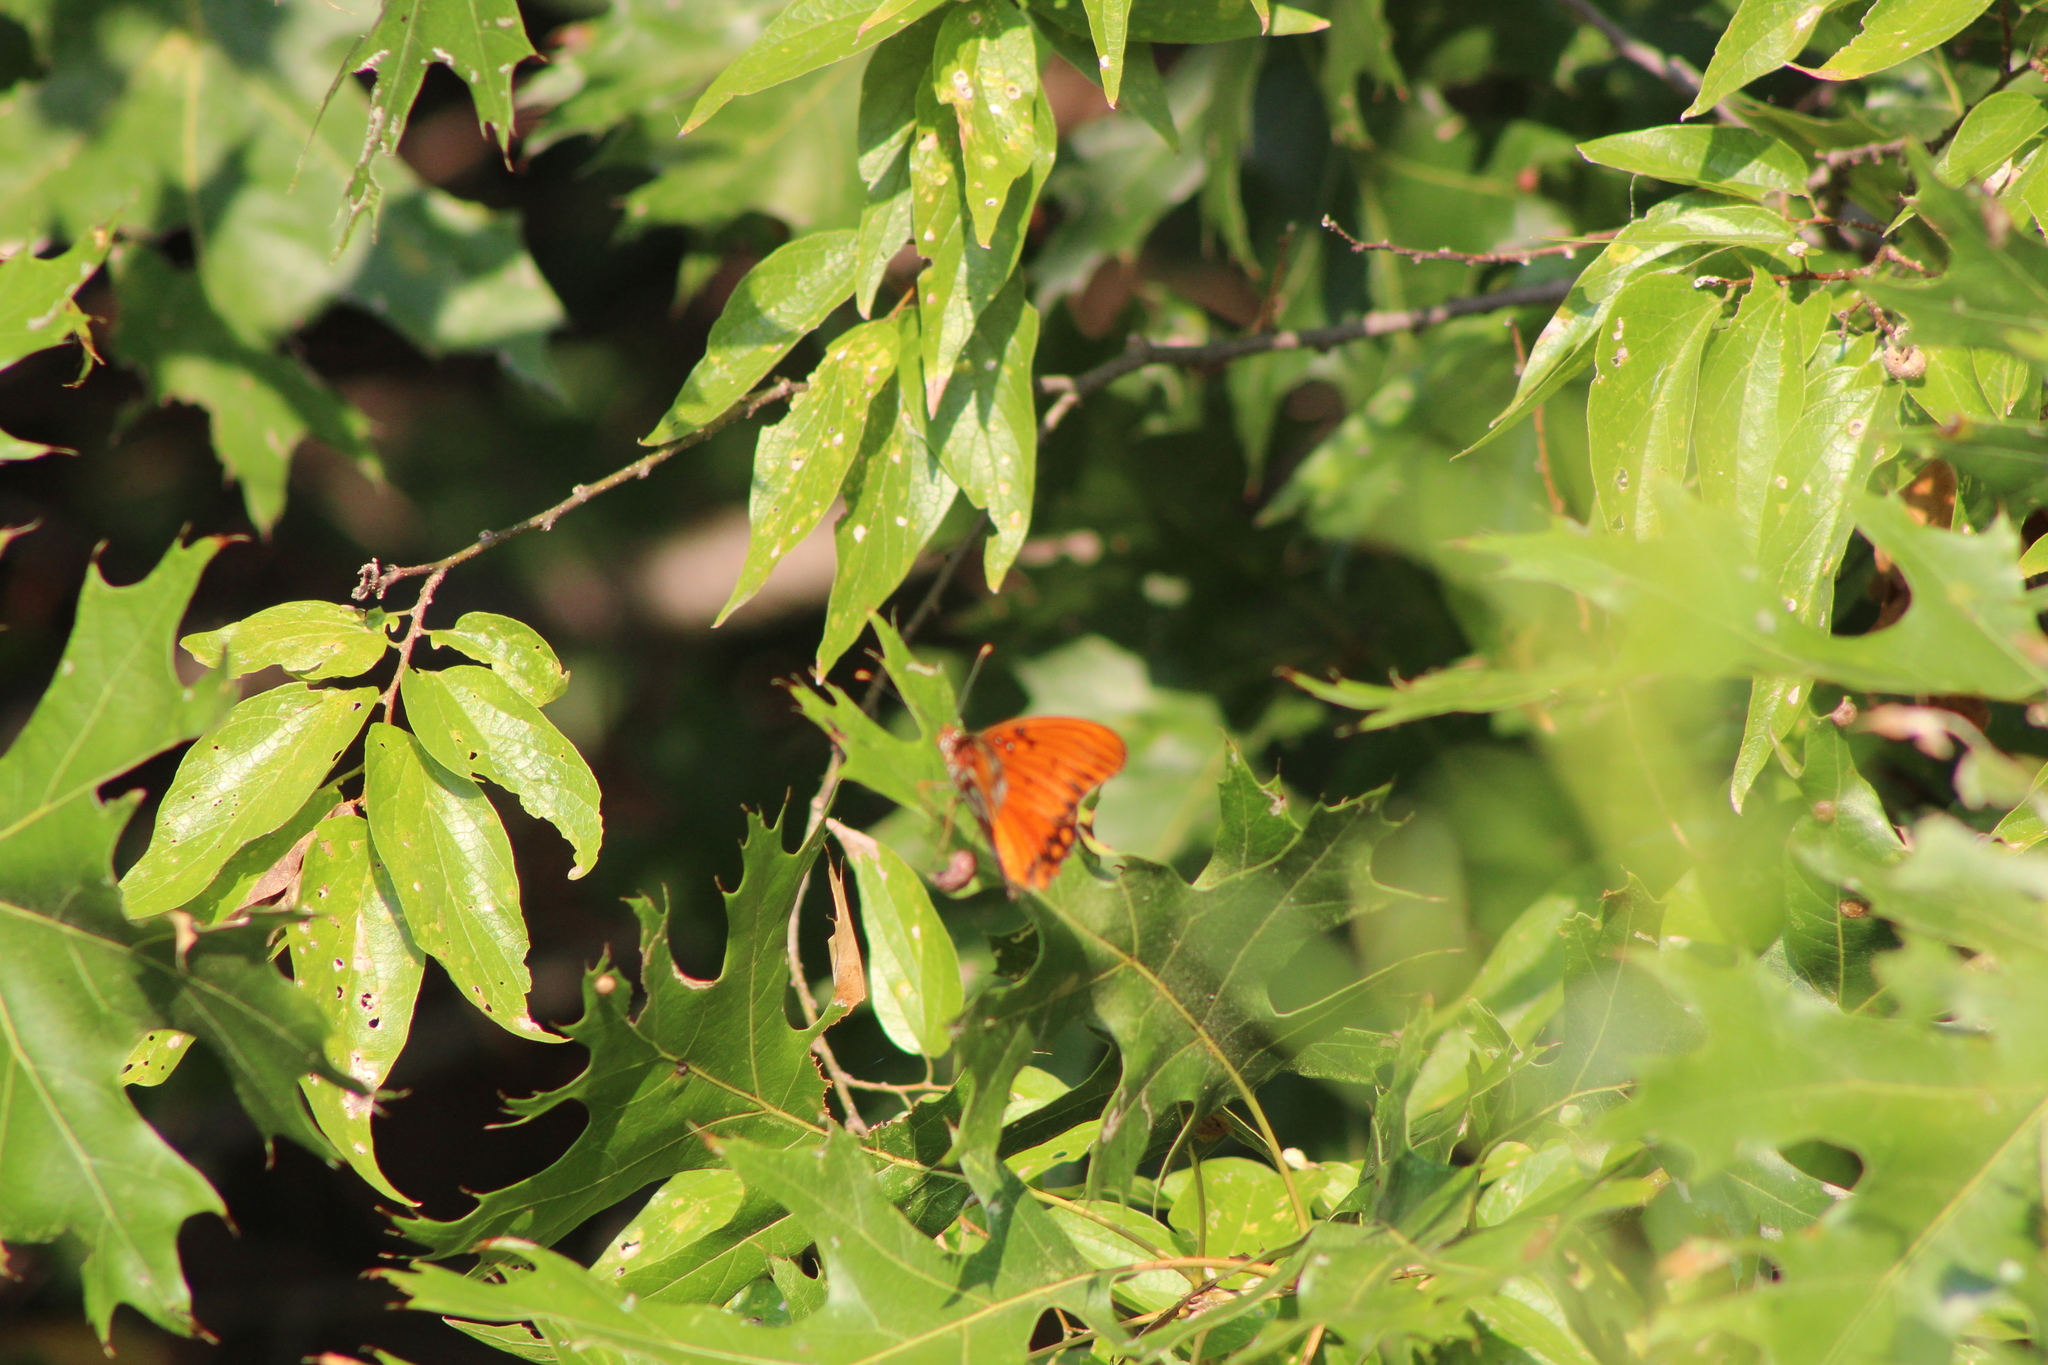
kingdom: Animalia
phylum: Arthropoda
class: Insecta
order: Lepidoptera
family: Nymphalidae
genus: Dione
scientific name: Dione vanillae
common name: Gulf fritillary
